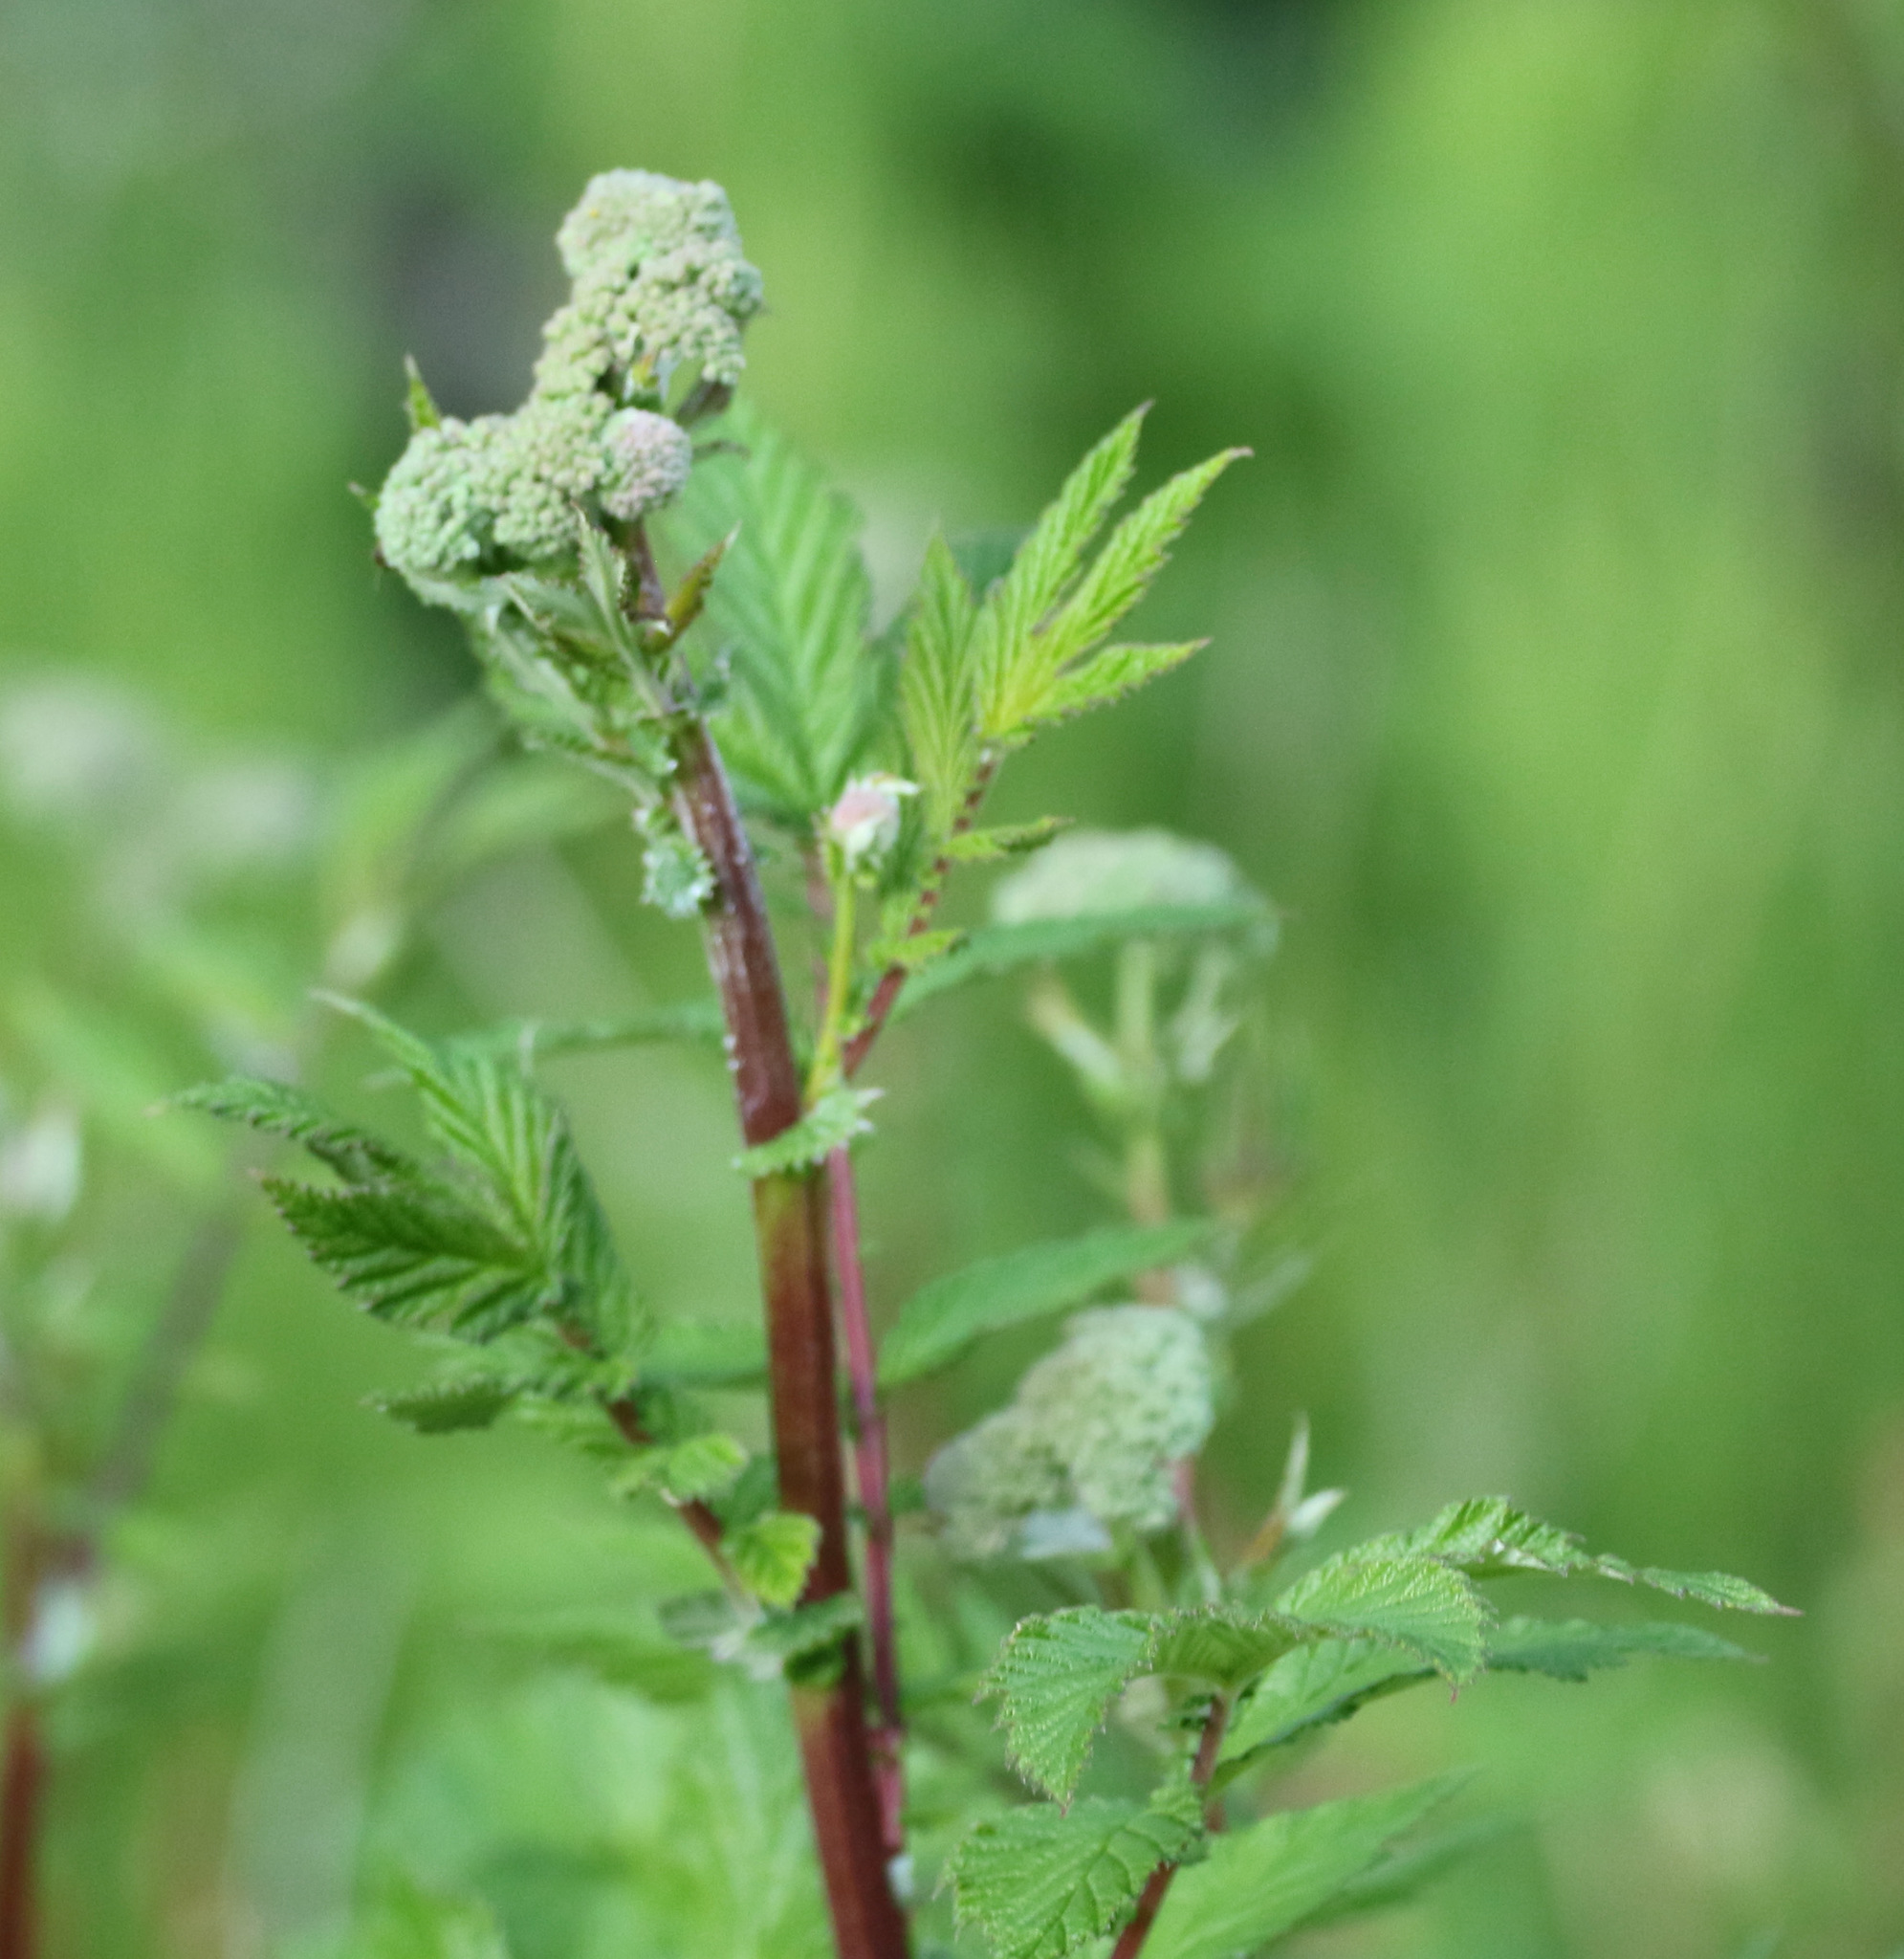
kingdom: Plantae
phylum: Tracheophyta
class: Magnoliopsida
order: Rosales
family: Rosaceae
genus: Filipendula
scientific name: Filipendula ulmaria
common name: Meadowsweet
